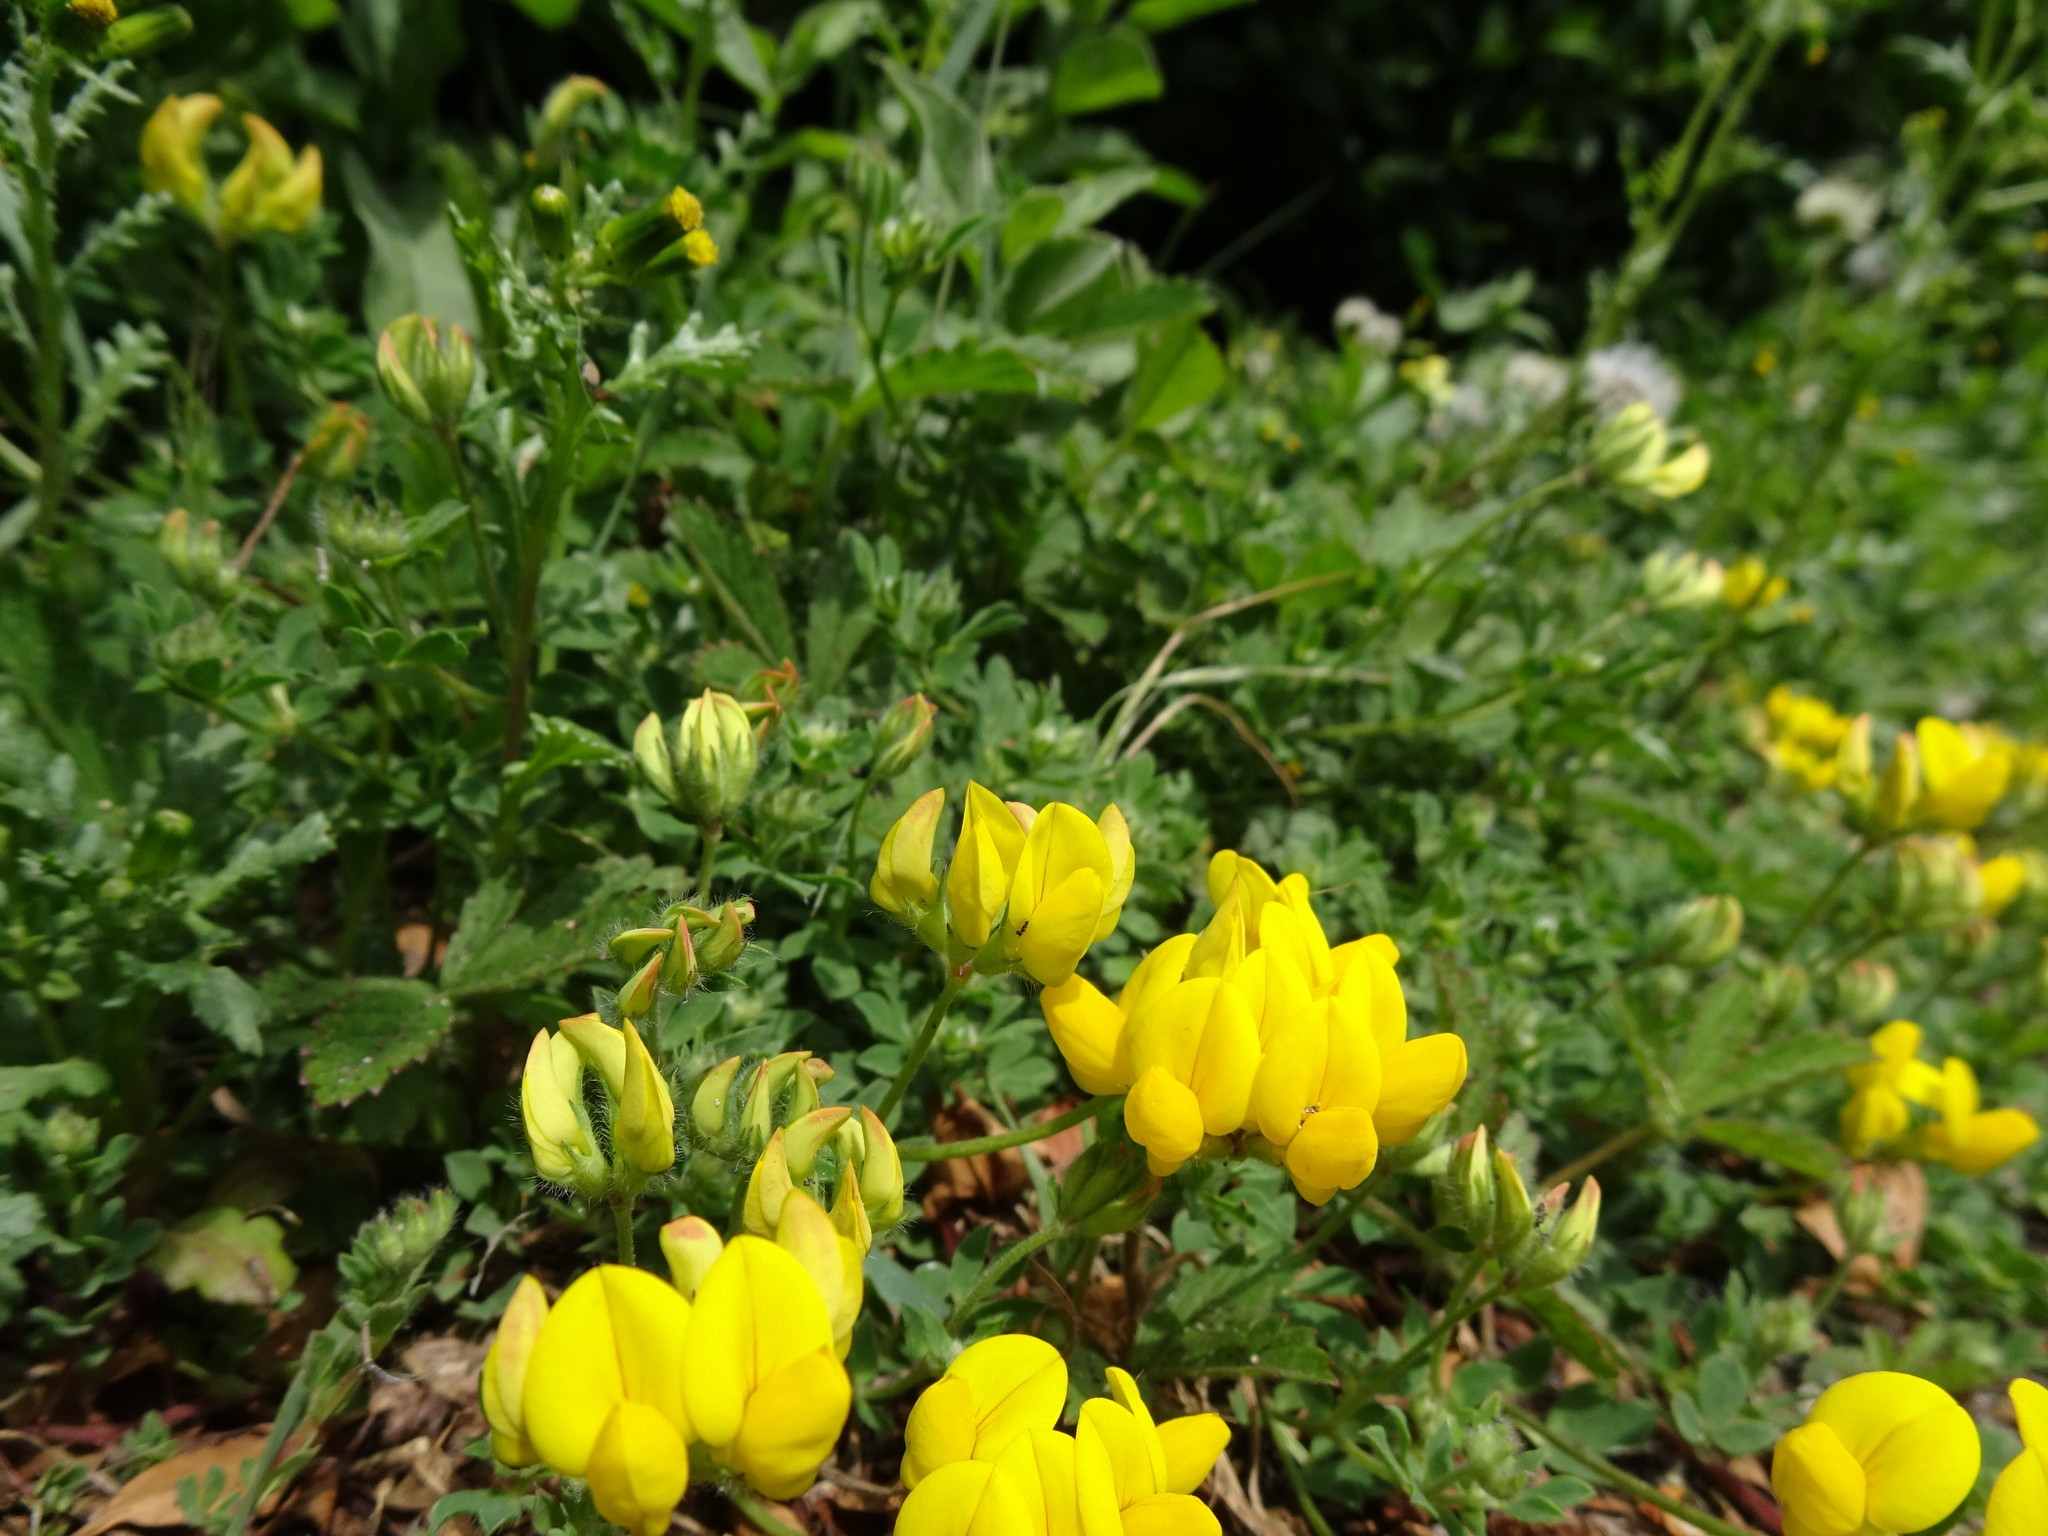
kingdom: Plantae
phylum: Tracheophyta
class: Magnoliopsida
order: Fabales
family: Fabaceae
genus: Lotus
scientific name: Lotus corniculatus
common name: Common bird's-foot-trefoil
